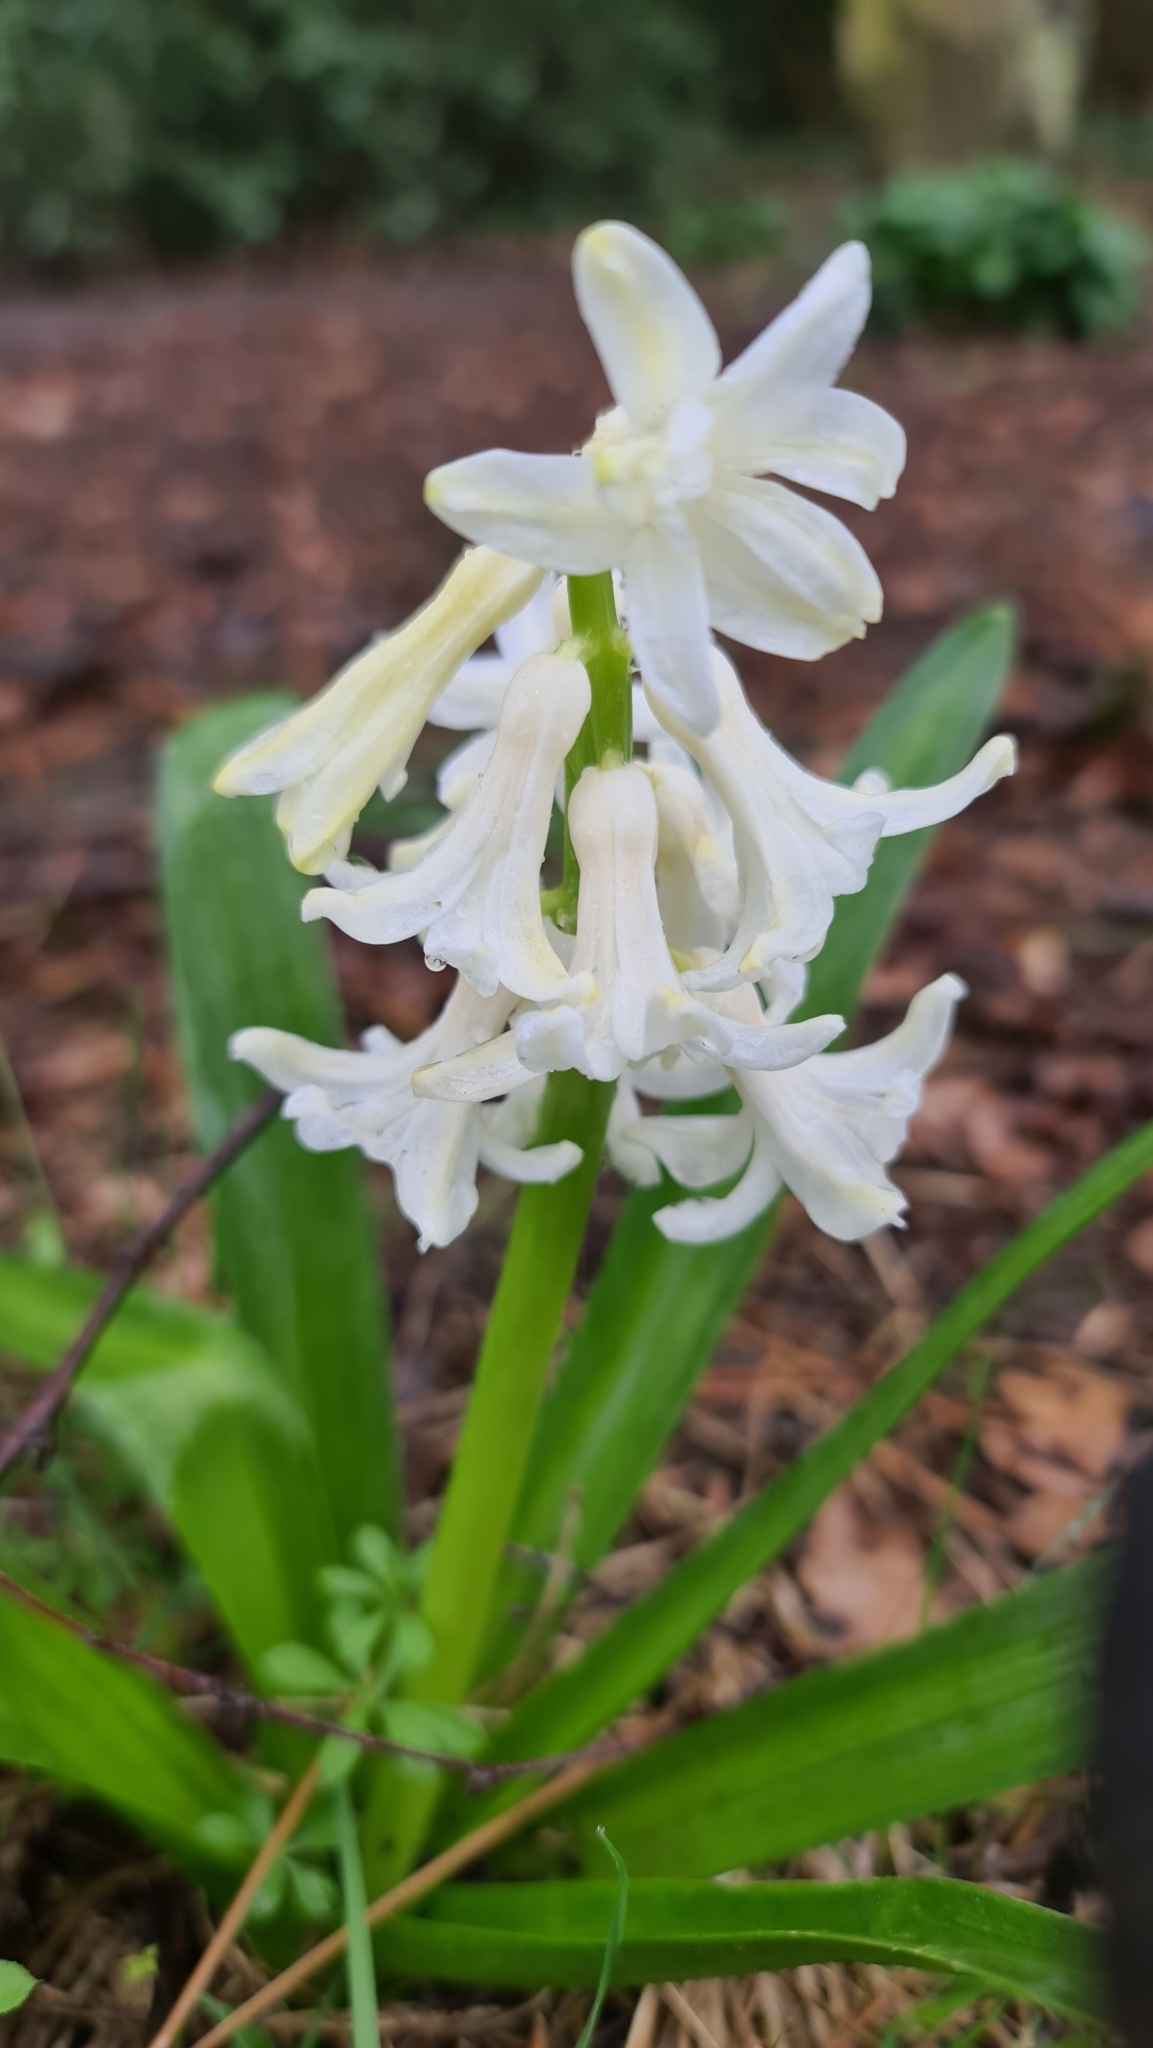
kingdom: Plantae
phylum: Tracheophyta
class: Liliopsida
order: Asparagales
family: Asparagaceae
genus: Hyacinthus
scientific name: Hyacinthus orientalis
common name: Hyacinth
